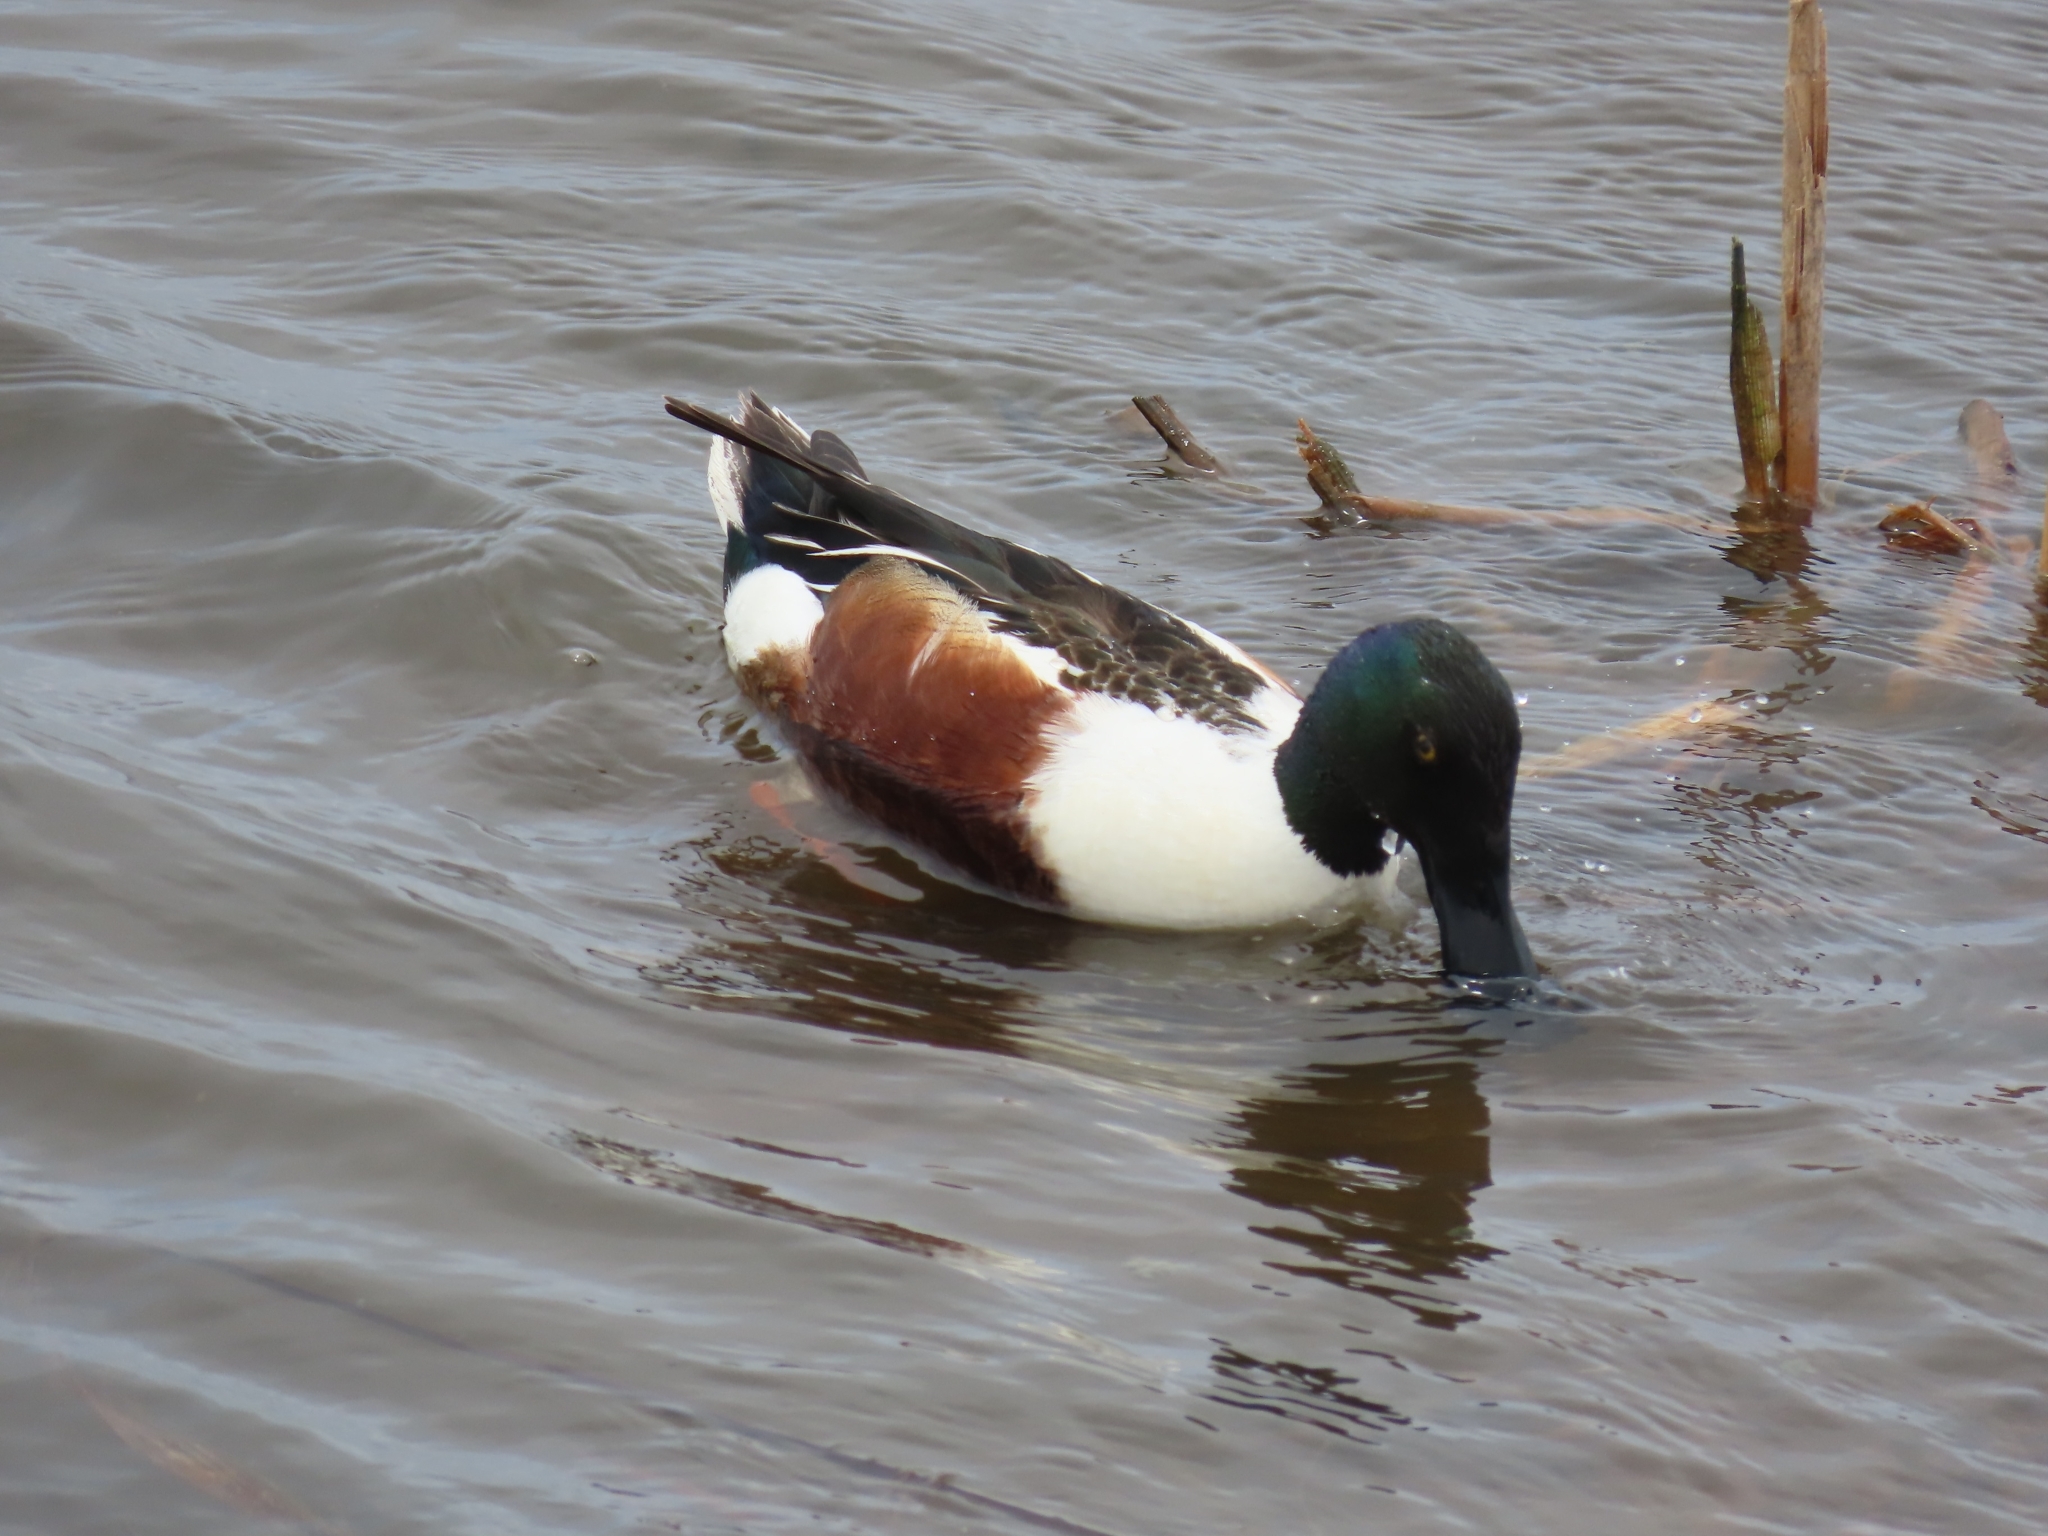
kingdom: Animalia
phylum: Chordata
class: Aves
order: Anseriformes
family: Anatidae
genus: Spatula
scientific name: Spatula clypeata
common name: Northern shoveler
